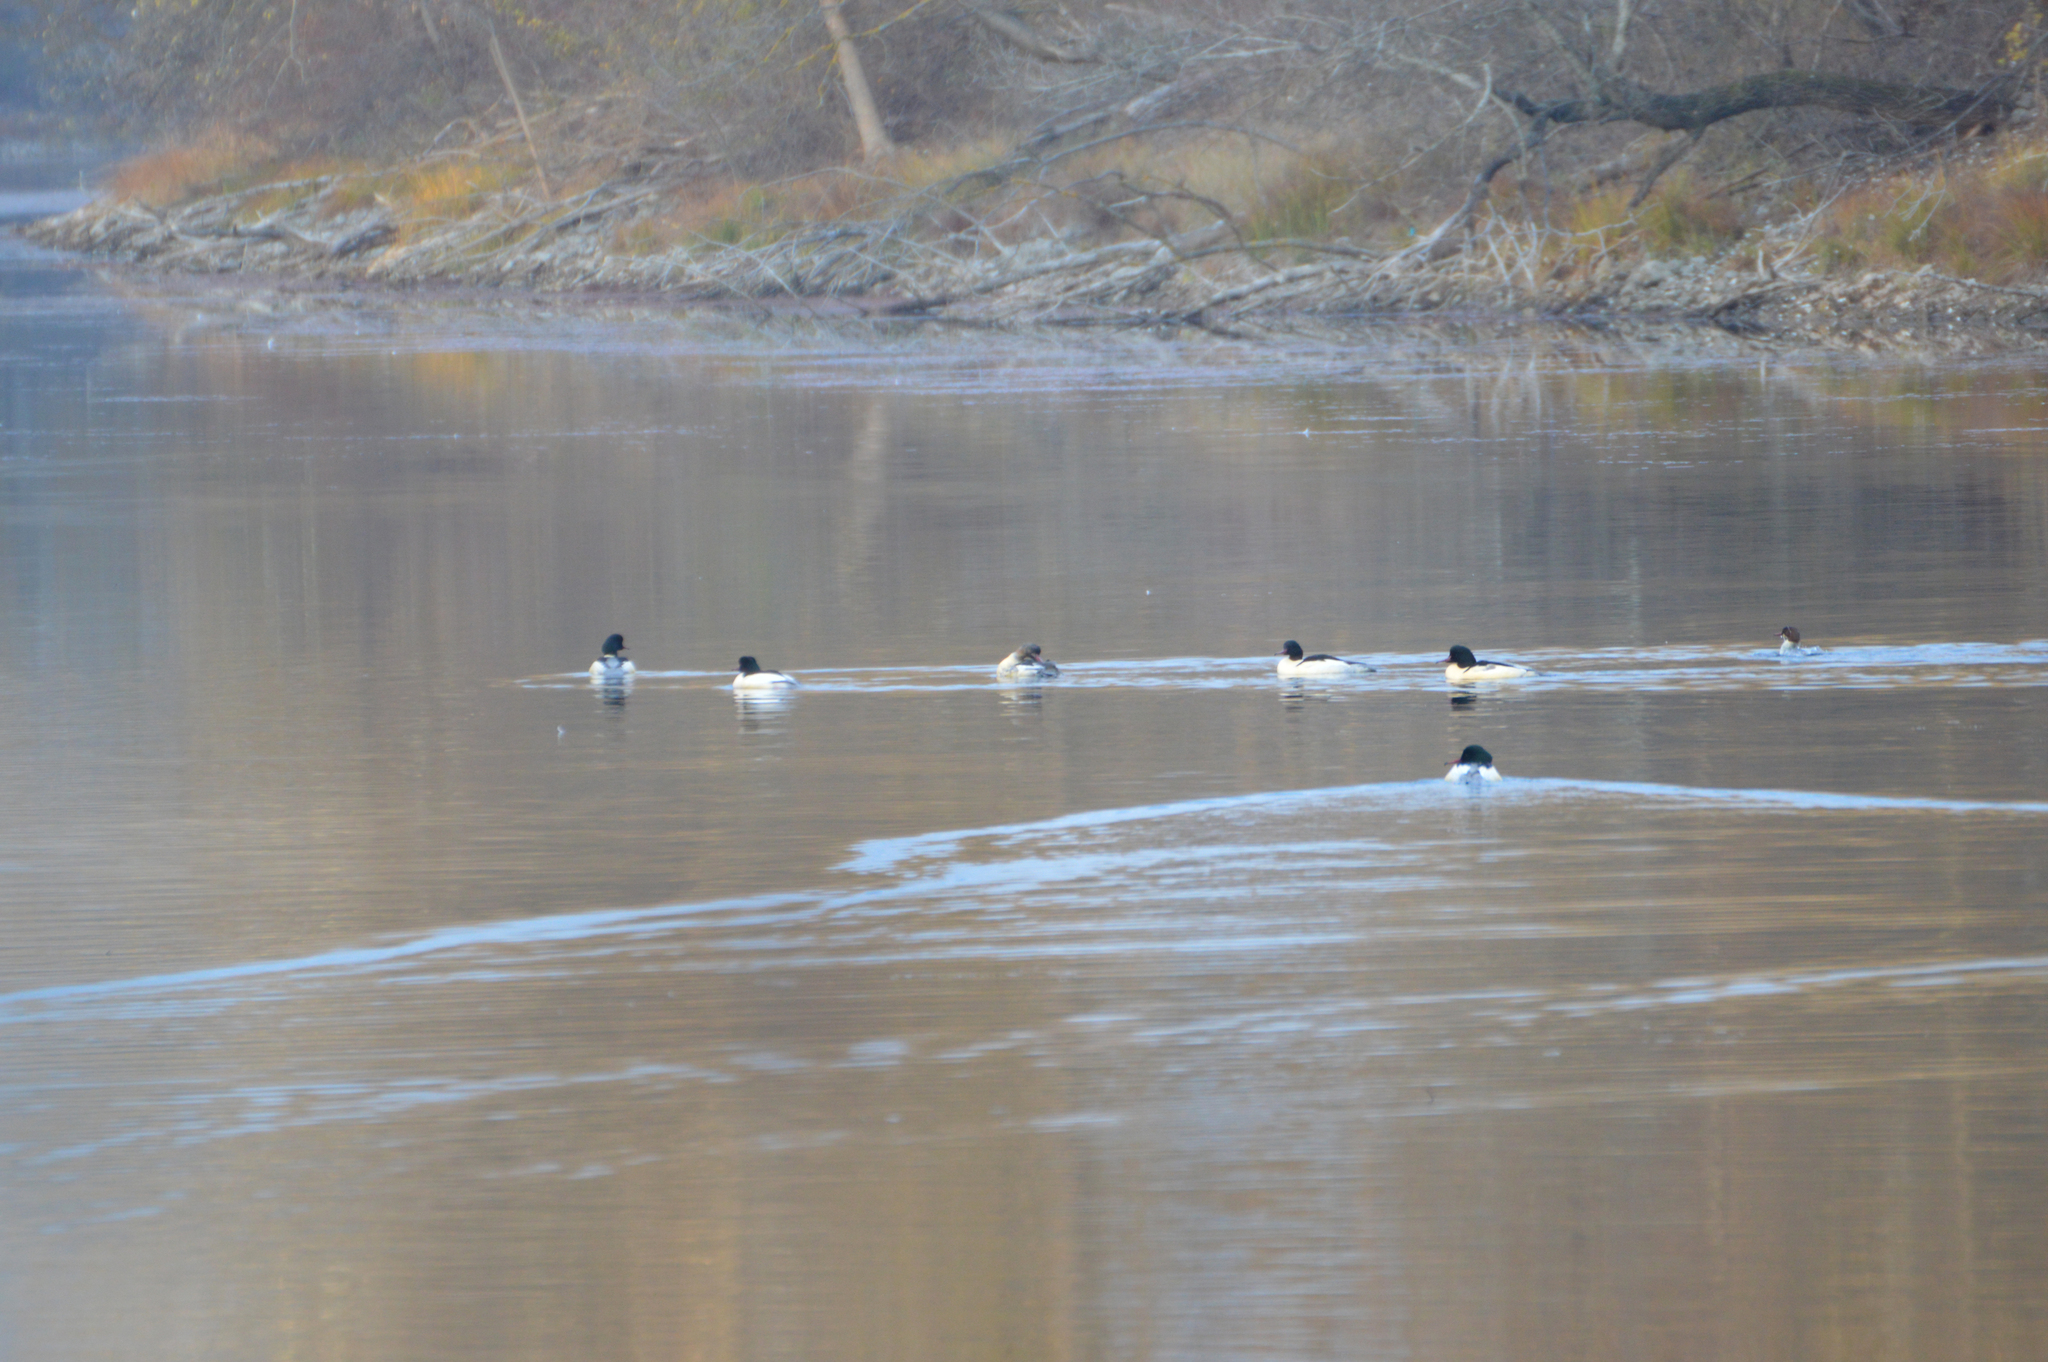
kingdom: Animalia
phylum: Chordata
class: Aves
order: Anseriformes
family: Anatidae
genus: Mergus
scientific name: Mergus merganser
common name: Common merganser
